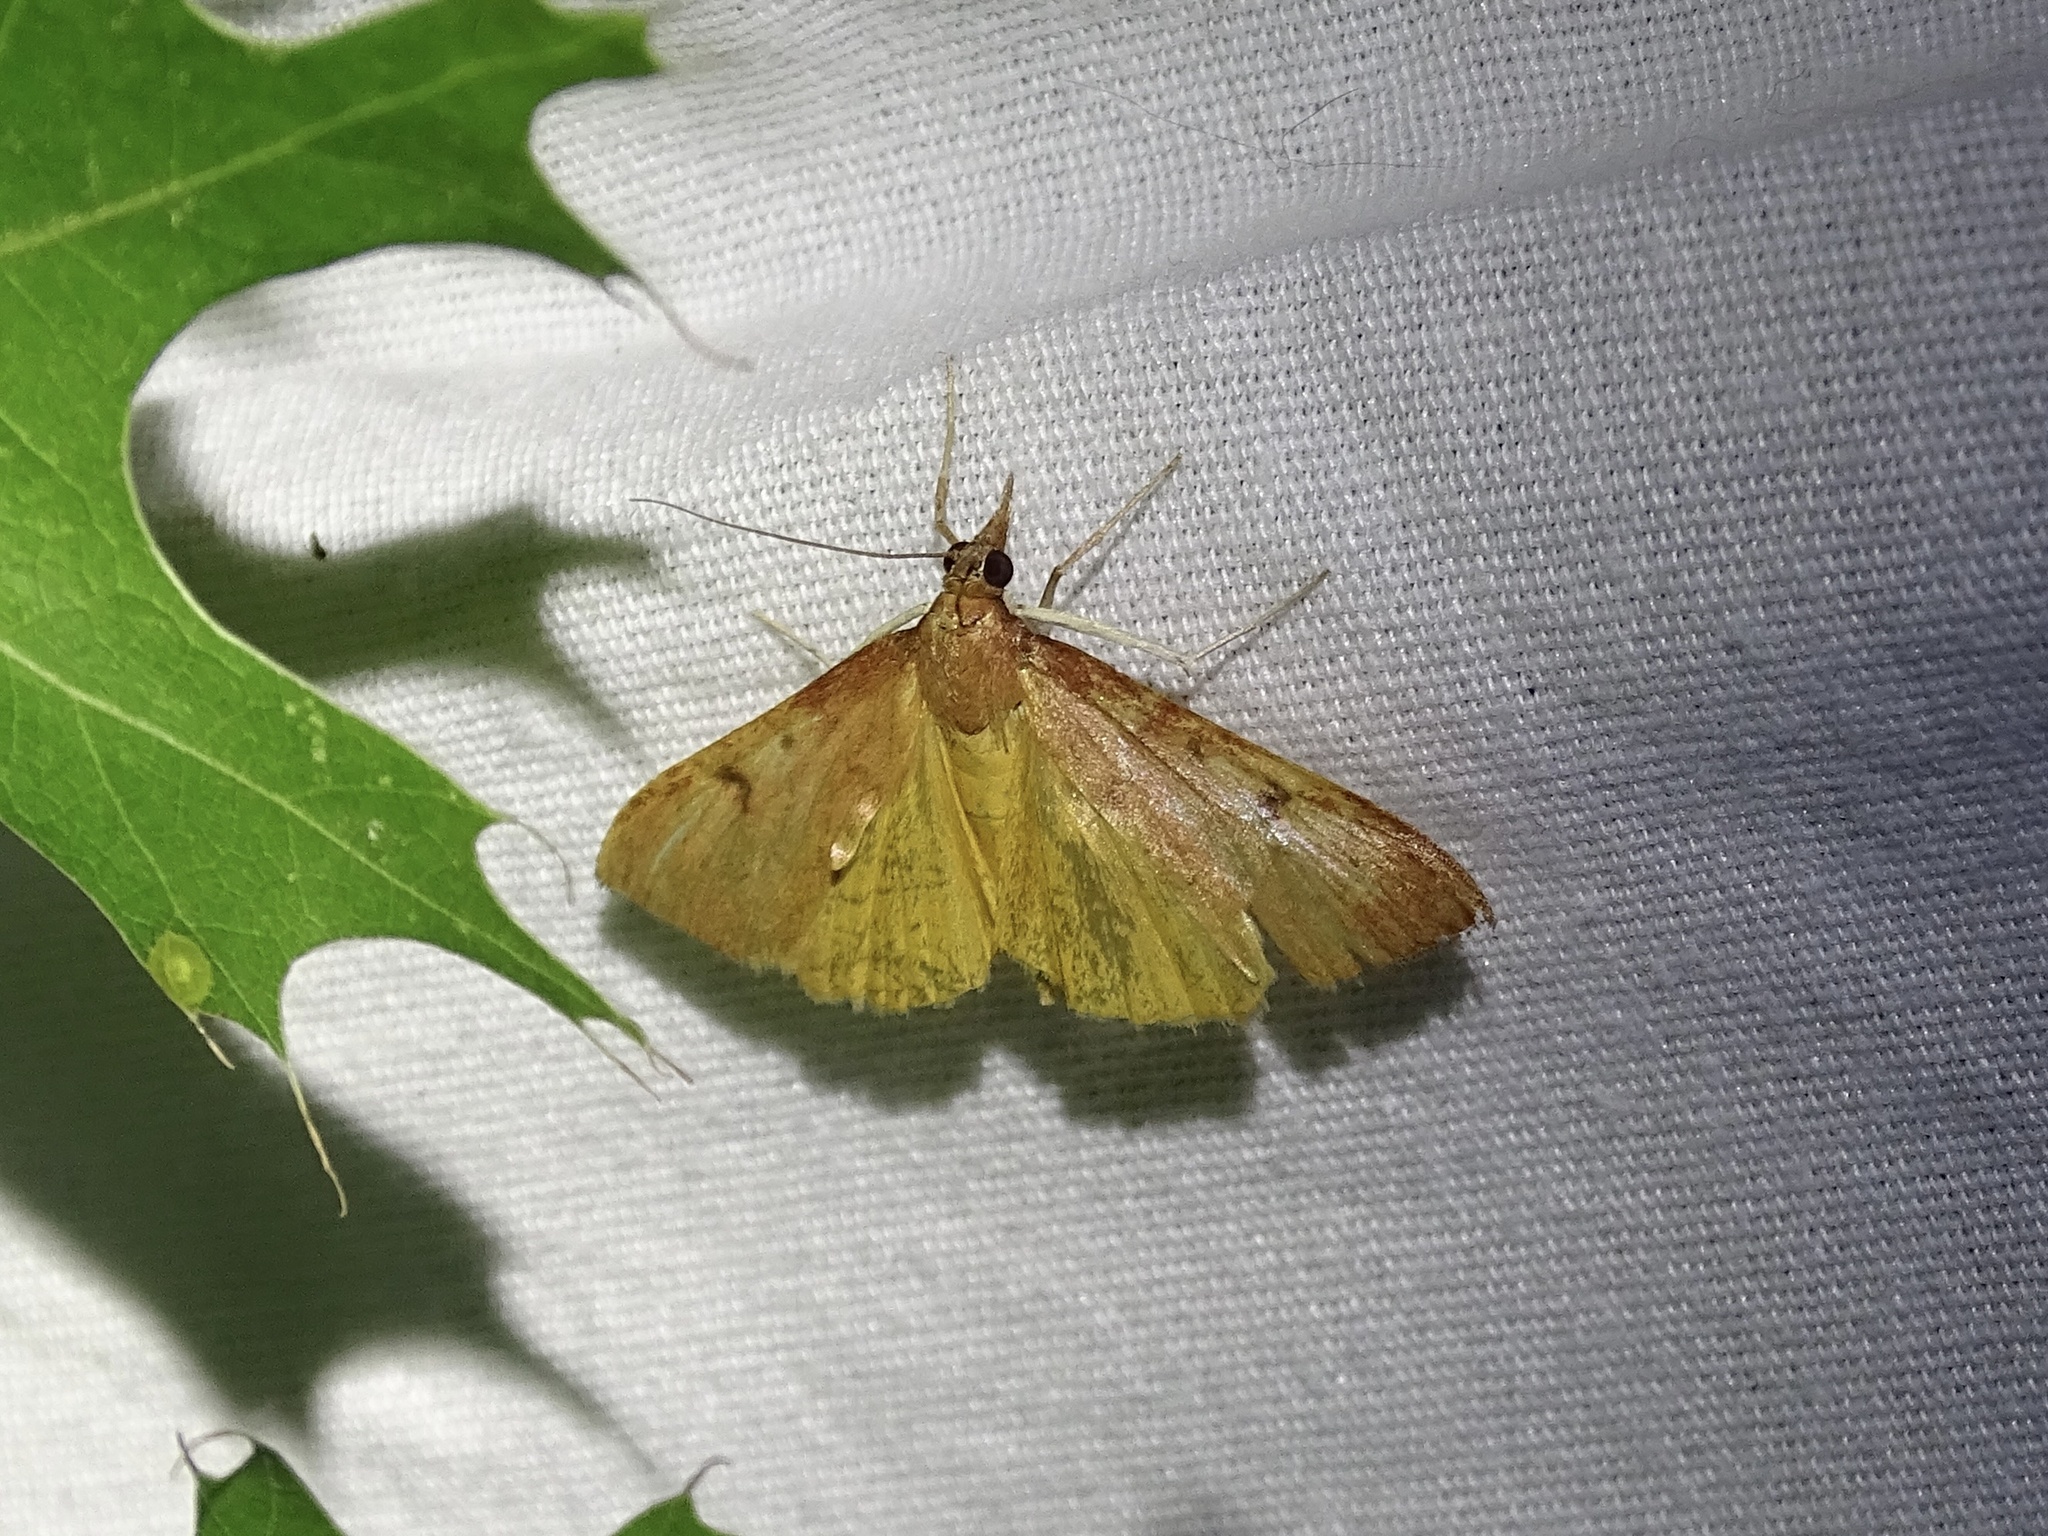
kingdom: Animalia
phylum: Arthropoda
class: Insecta
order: Lepidoptera
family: Crambidae
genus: Uresiphita
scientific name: Uresiphita reversalis
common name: Genista broom moth
